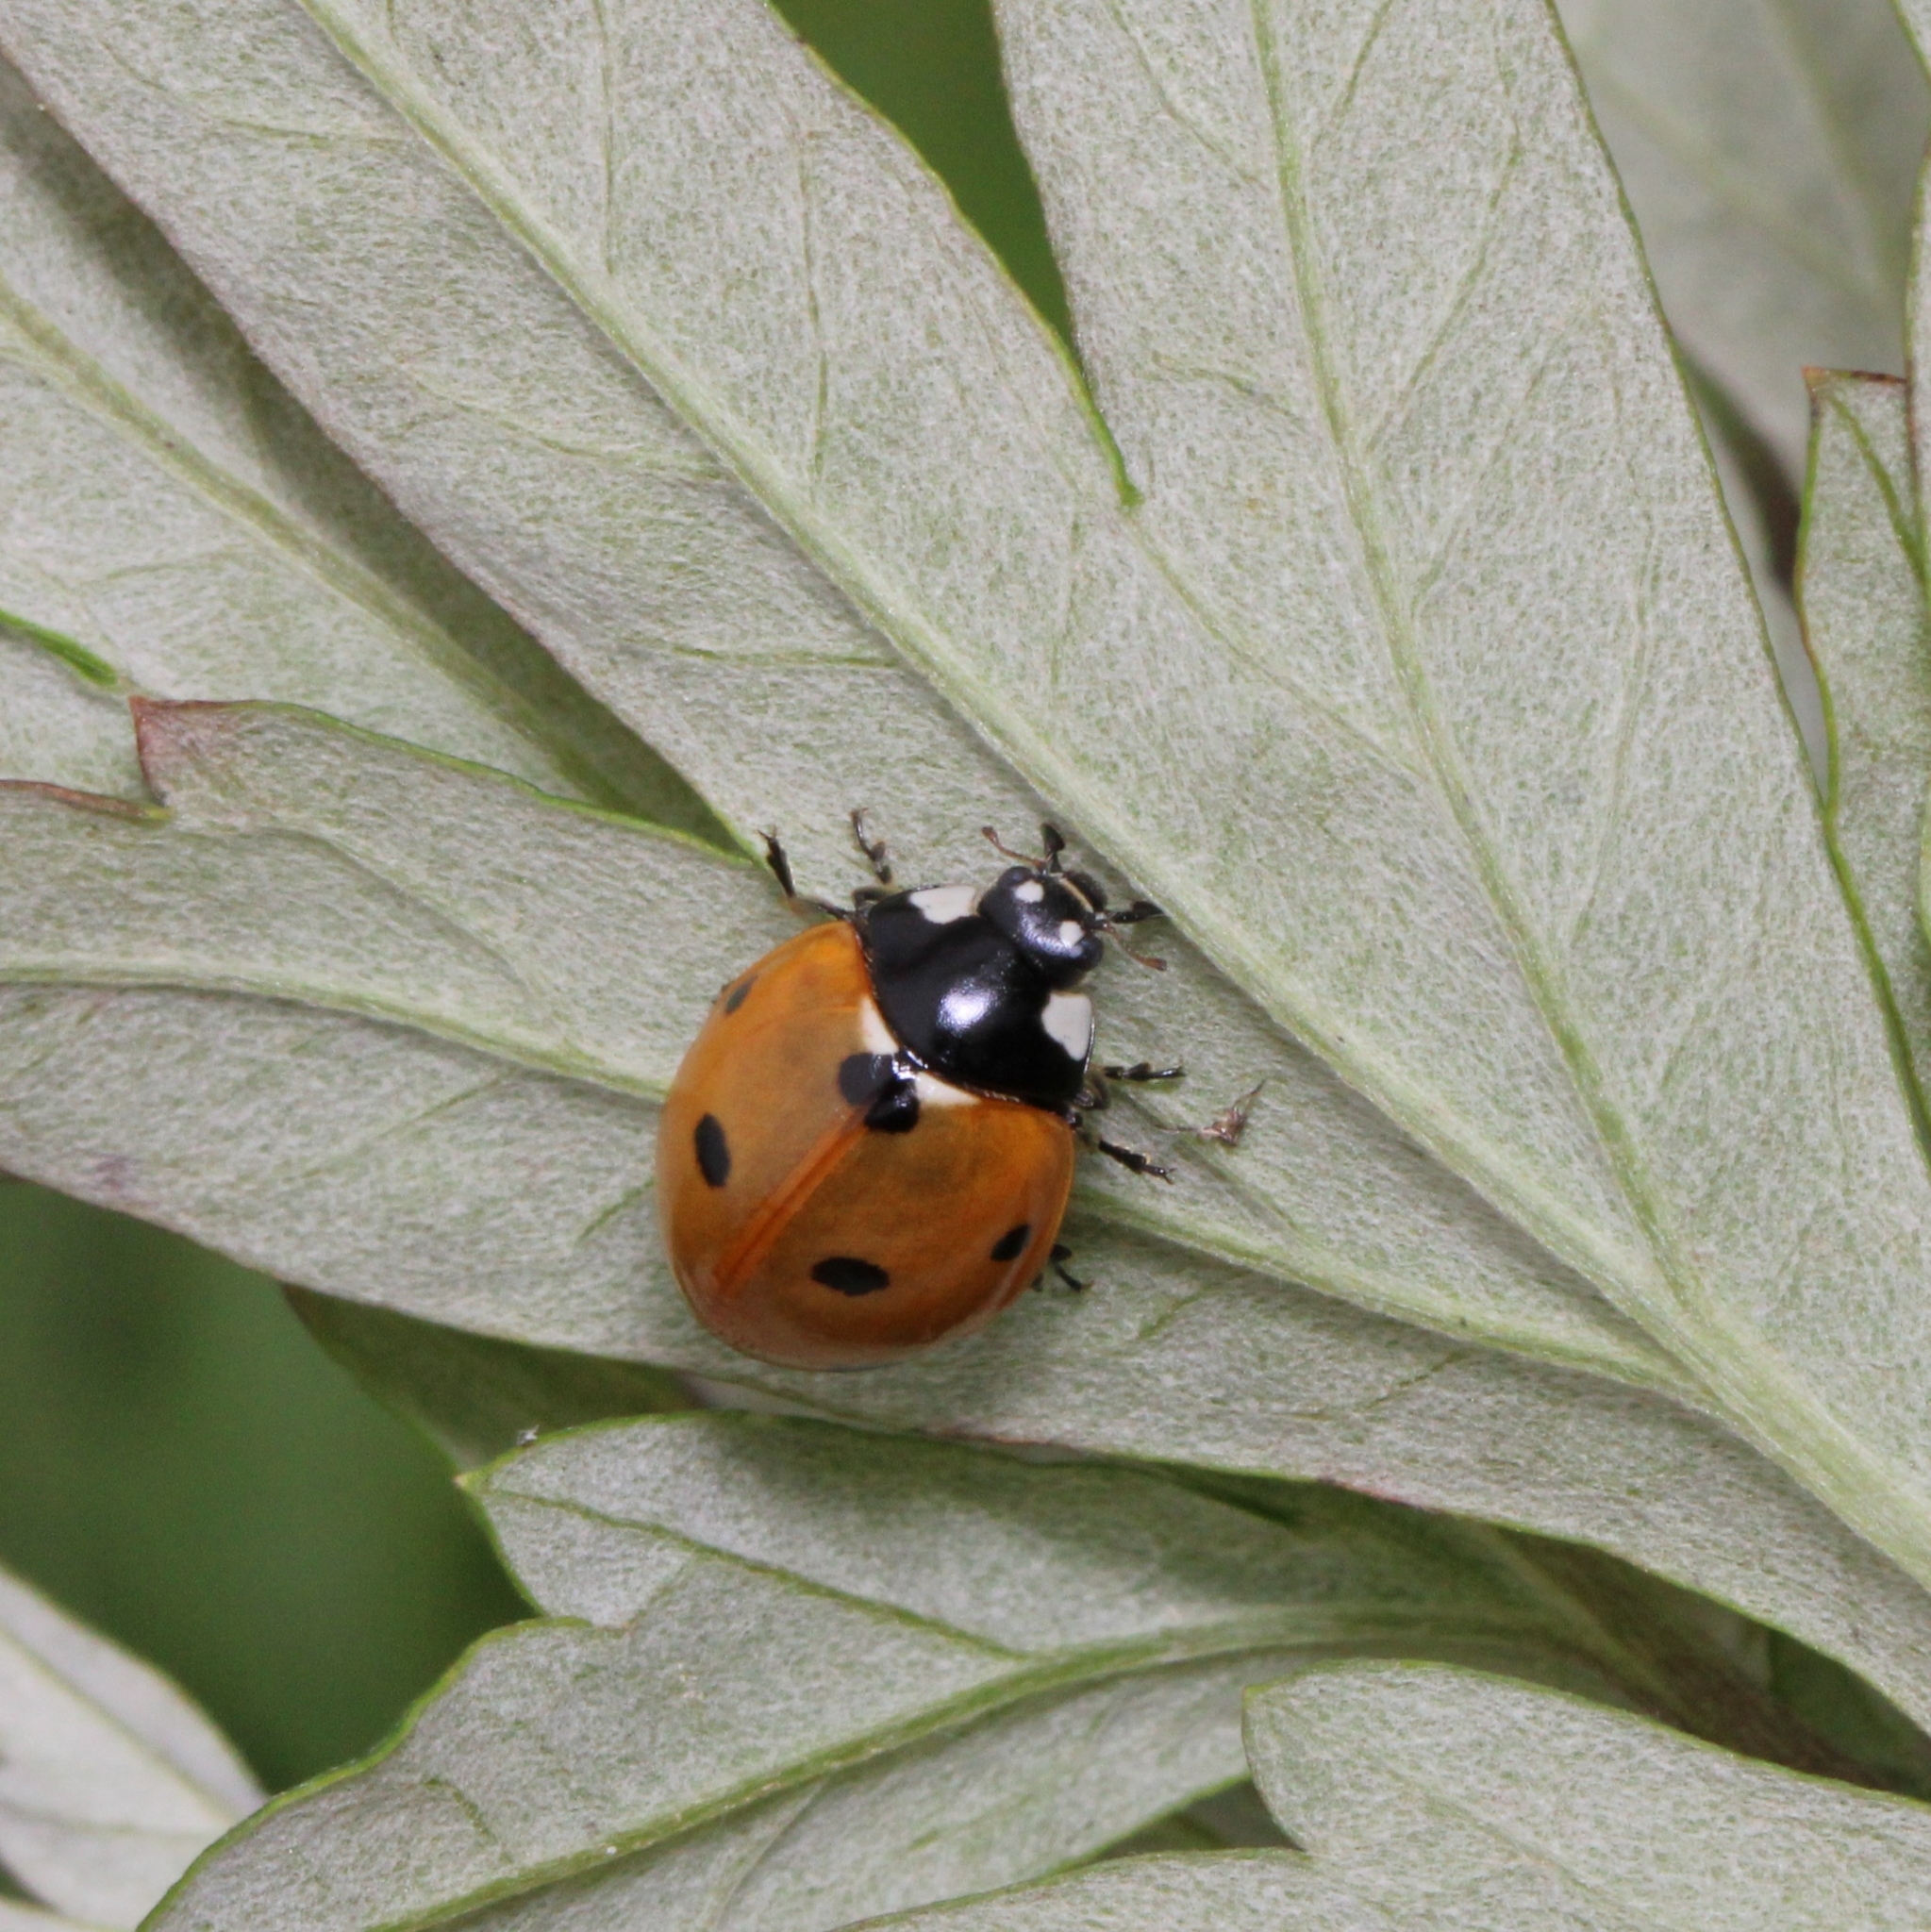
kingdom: Animalia
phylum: Arthropoda
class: Insecta
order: Coleoptera
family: Coccinellidae
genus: Coccinella
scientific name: Coccinella septempunctata
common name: Sevenspotted lady beetle
